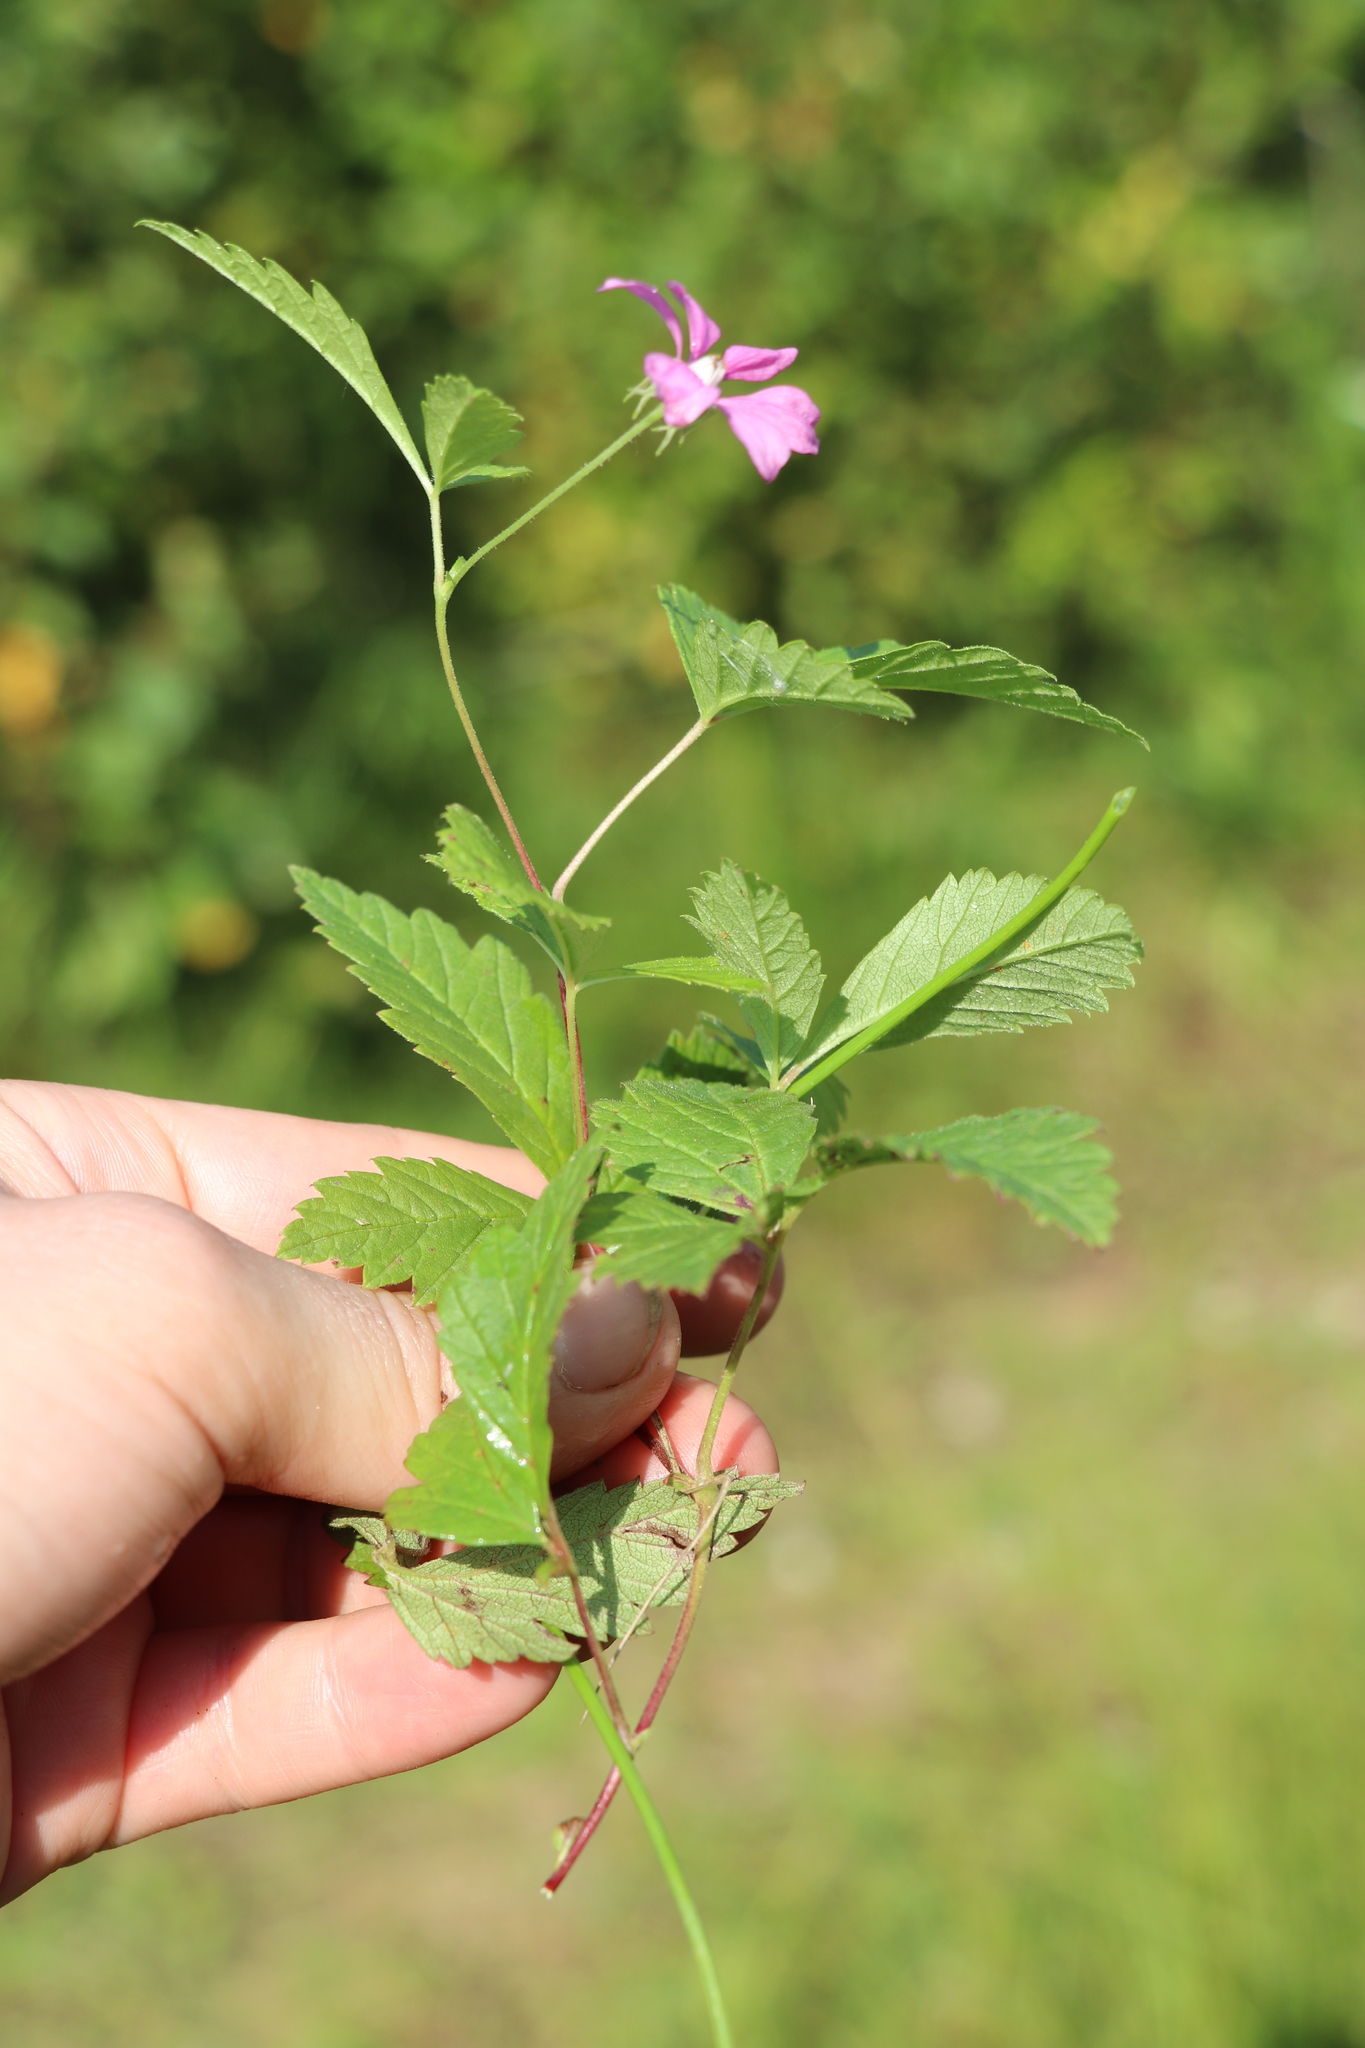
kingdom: Plantae
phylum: Tracheophyta
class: Magnoliopsida
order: Rosales
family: Rosaceae
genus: Rubus
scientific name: Rubus arcticus
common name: Arctic bramble
